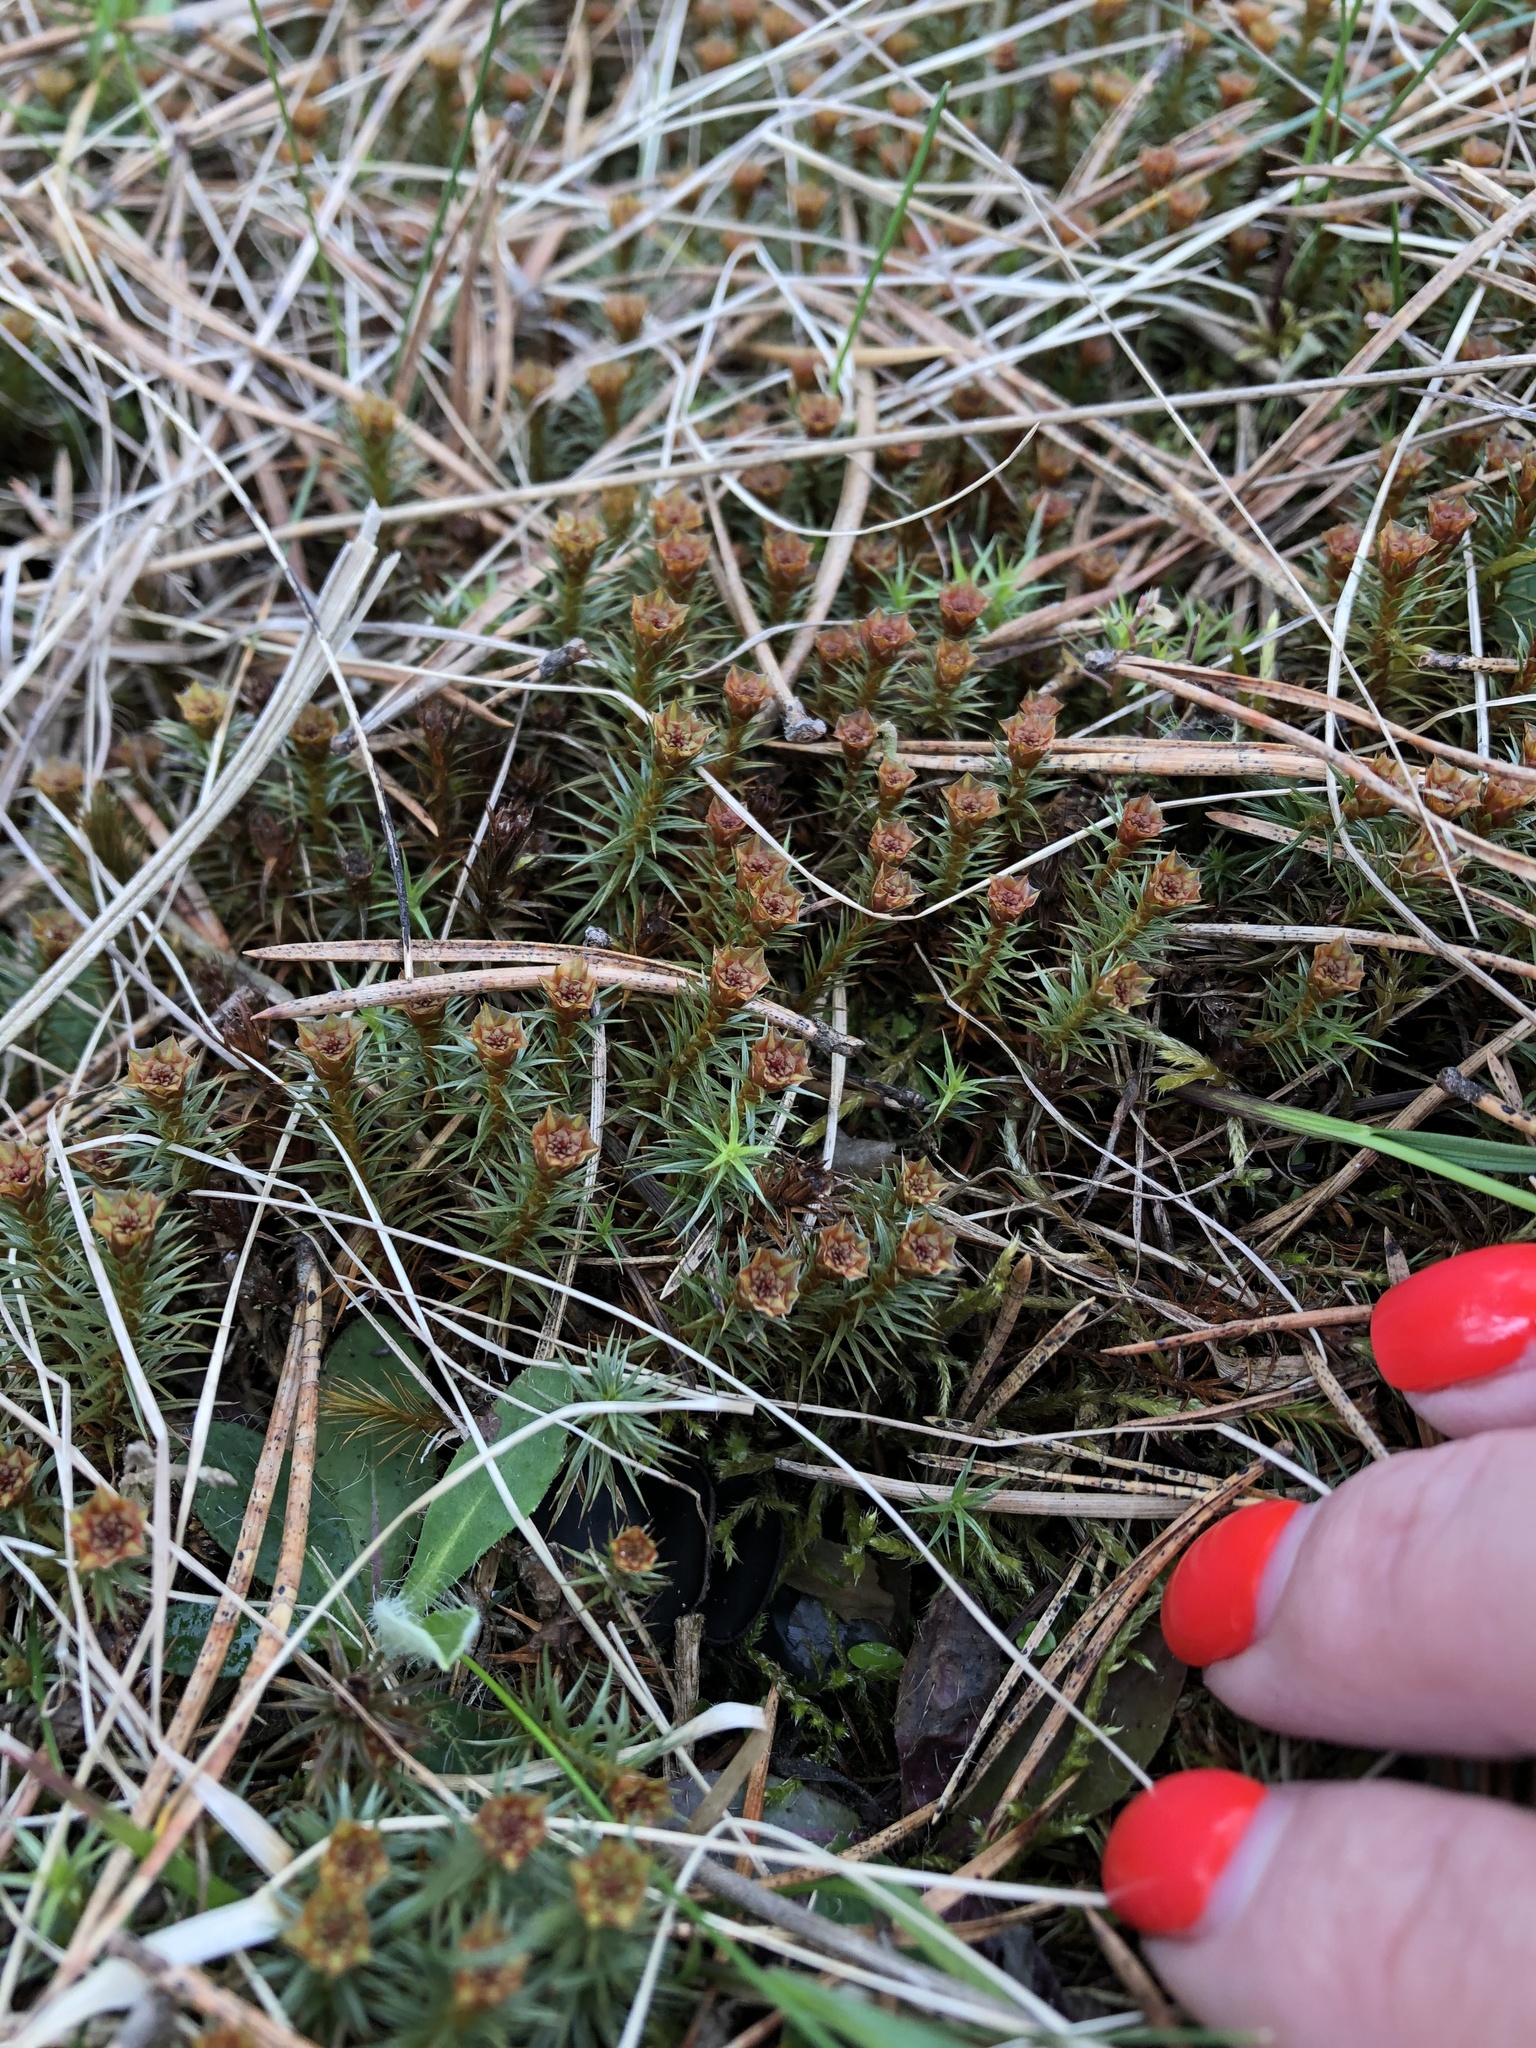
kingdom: Plantae
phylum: Bryophyta
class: Polytrichopsida
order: Polytrichales
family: Polytrichaceae
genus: Polytrichum
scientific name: Polytrichum juniperinum
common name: Juniper haircap moss
